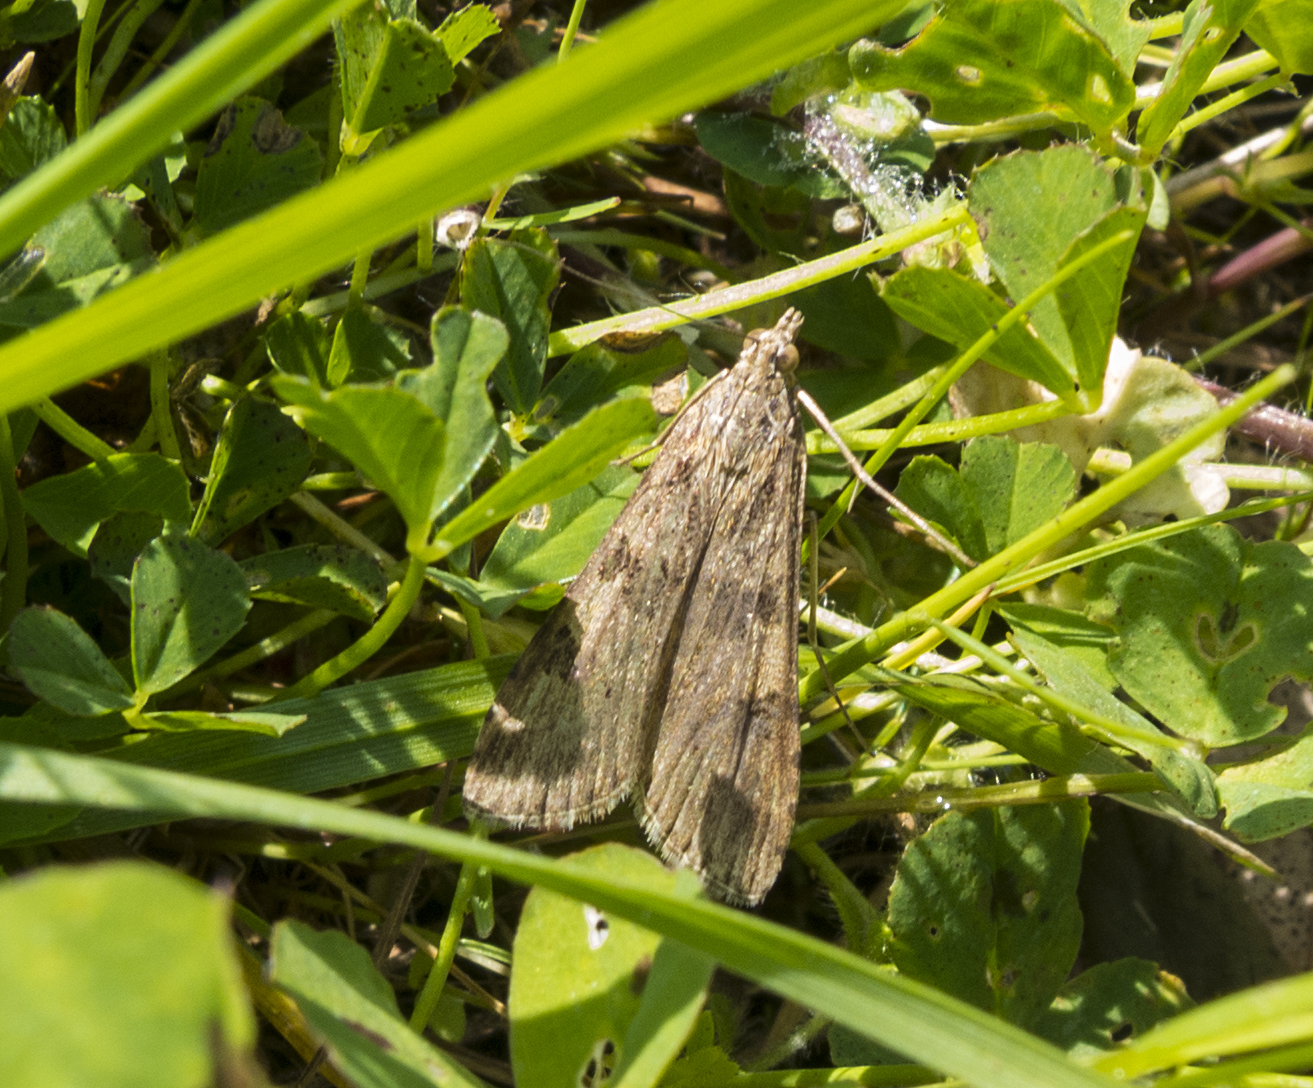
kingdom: Animalia
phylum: Arthropoda
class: Insecta
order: Lepidoptera
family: Crambidae
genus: Nomophila
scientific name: Nomophila noctuella
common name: Rush veneer
